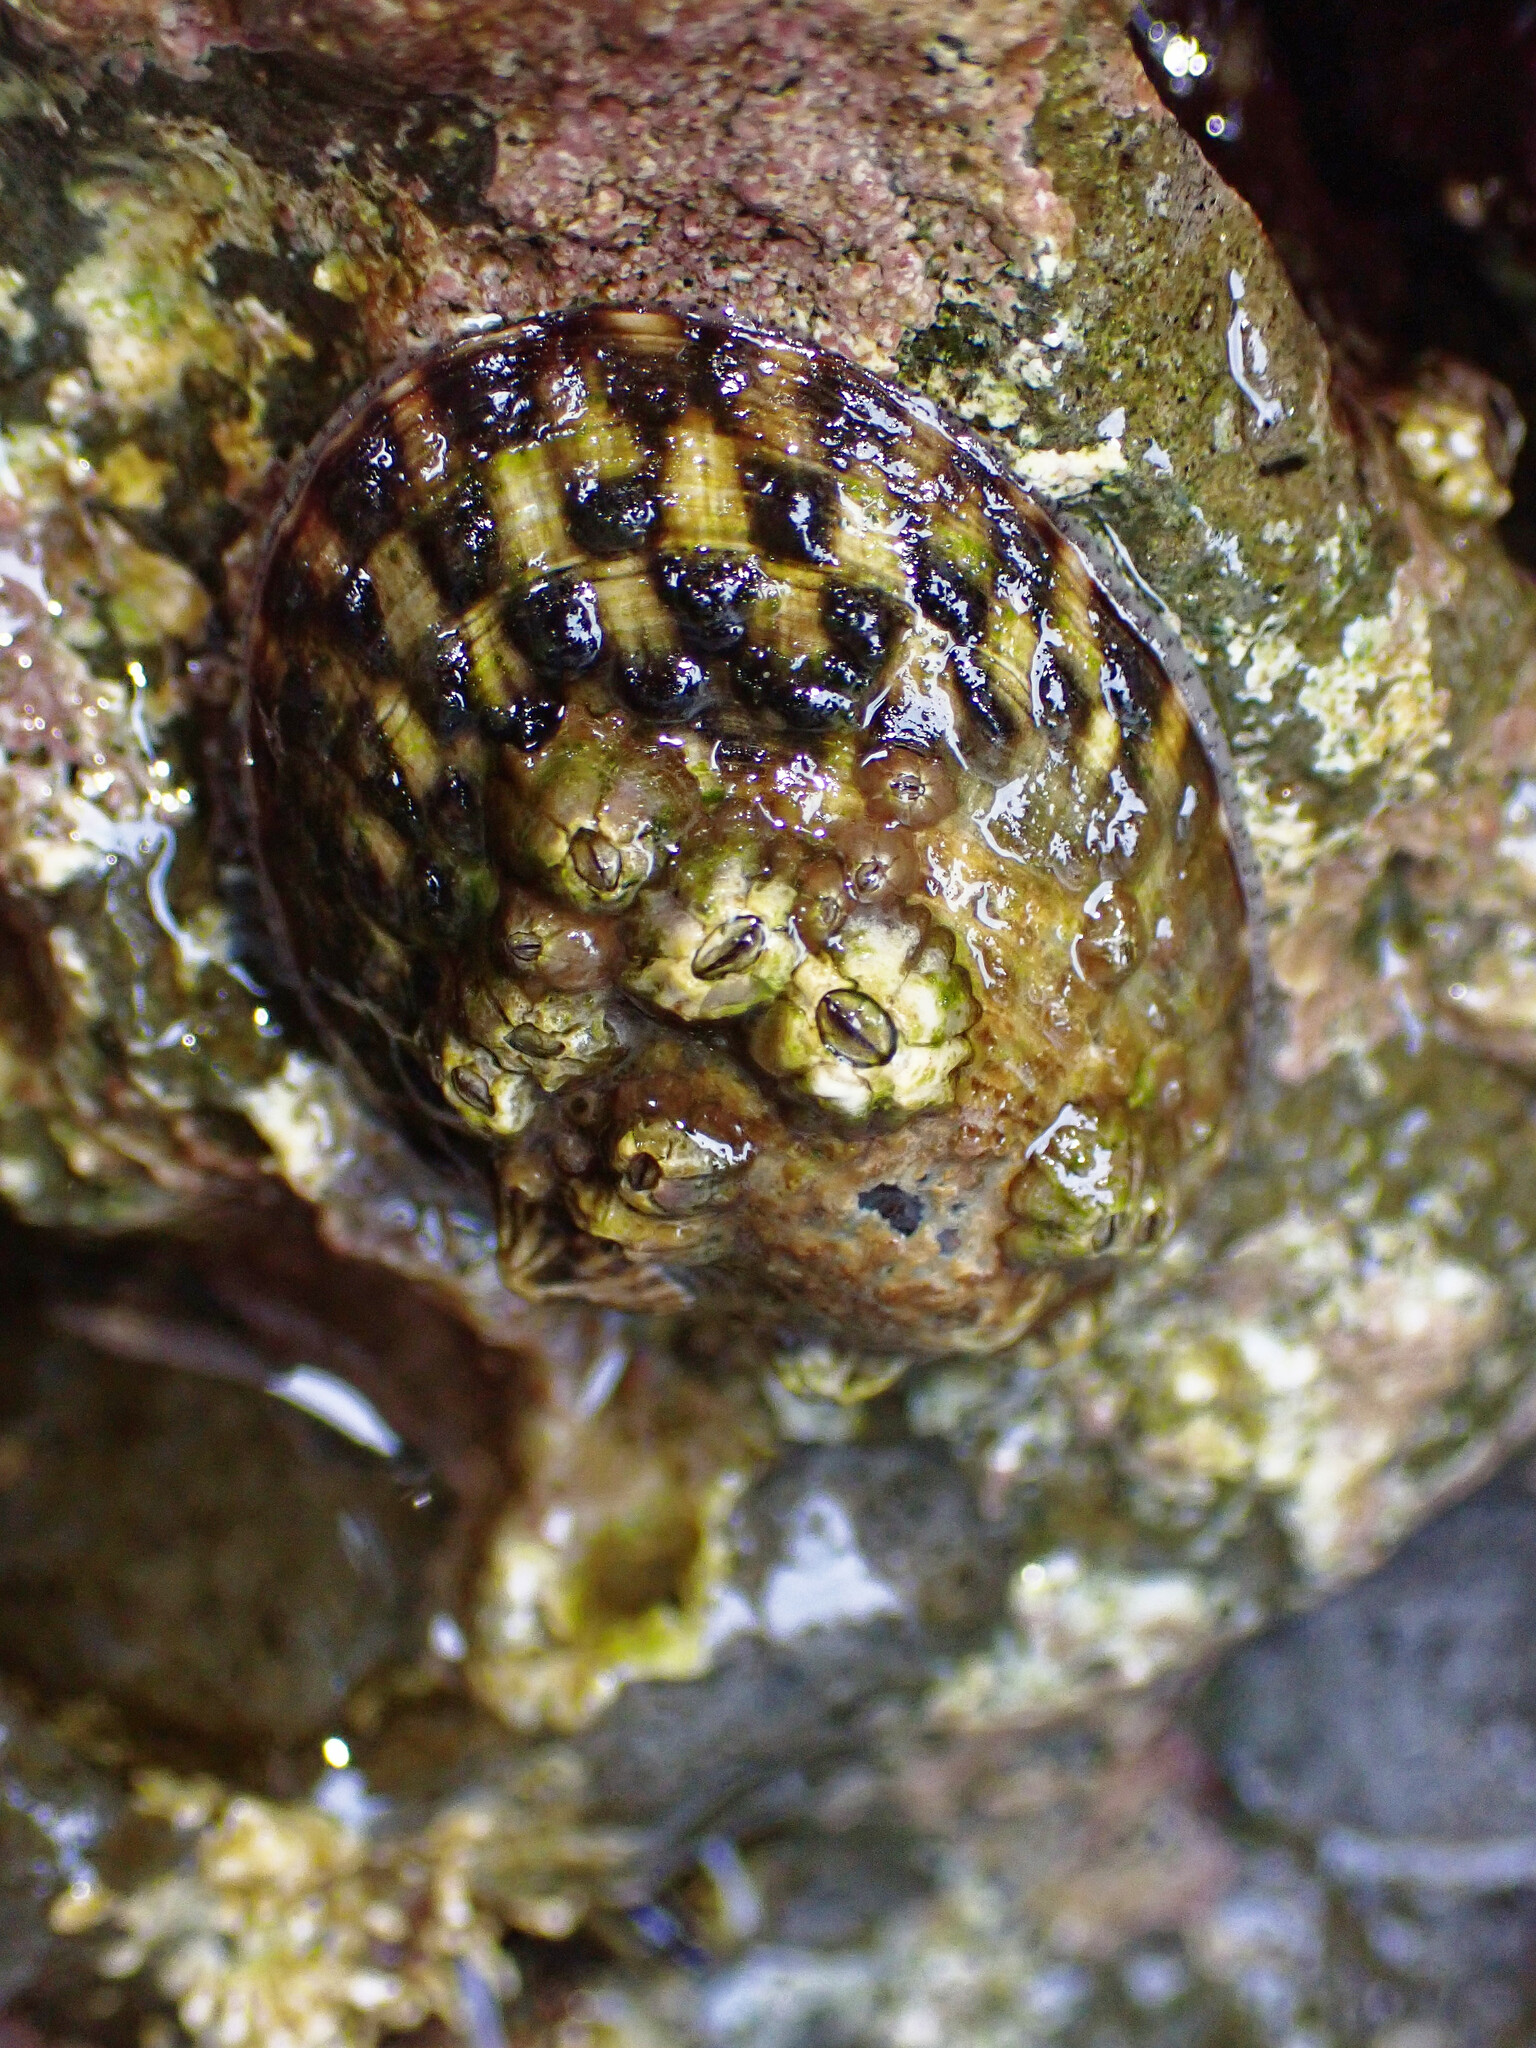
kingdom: Animalia
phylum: Mollusca
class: Gastropoda
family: Lottiidae
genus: Lottia
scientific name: Lottia gigantea
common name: Owl limpet
